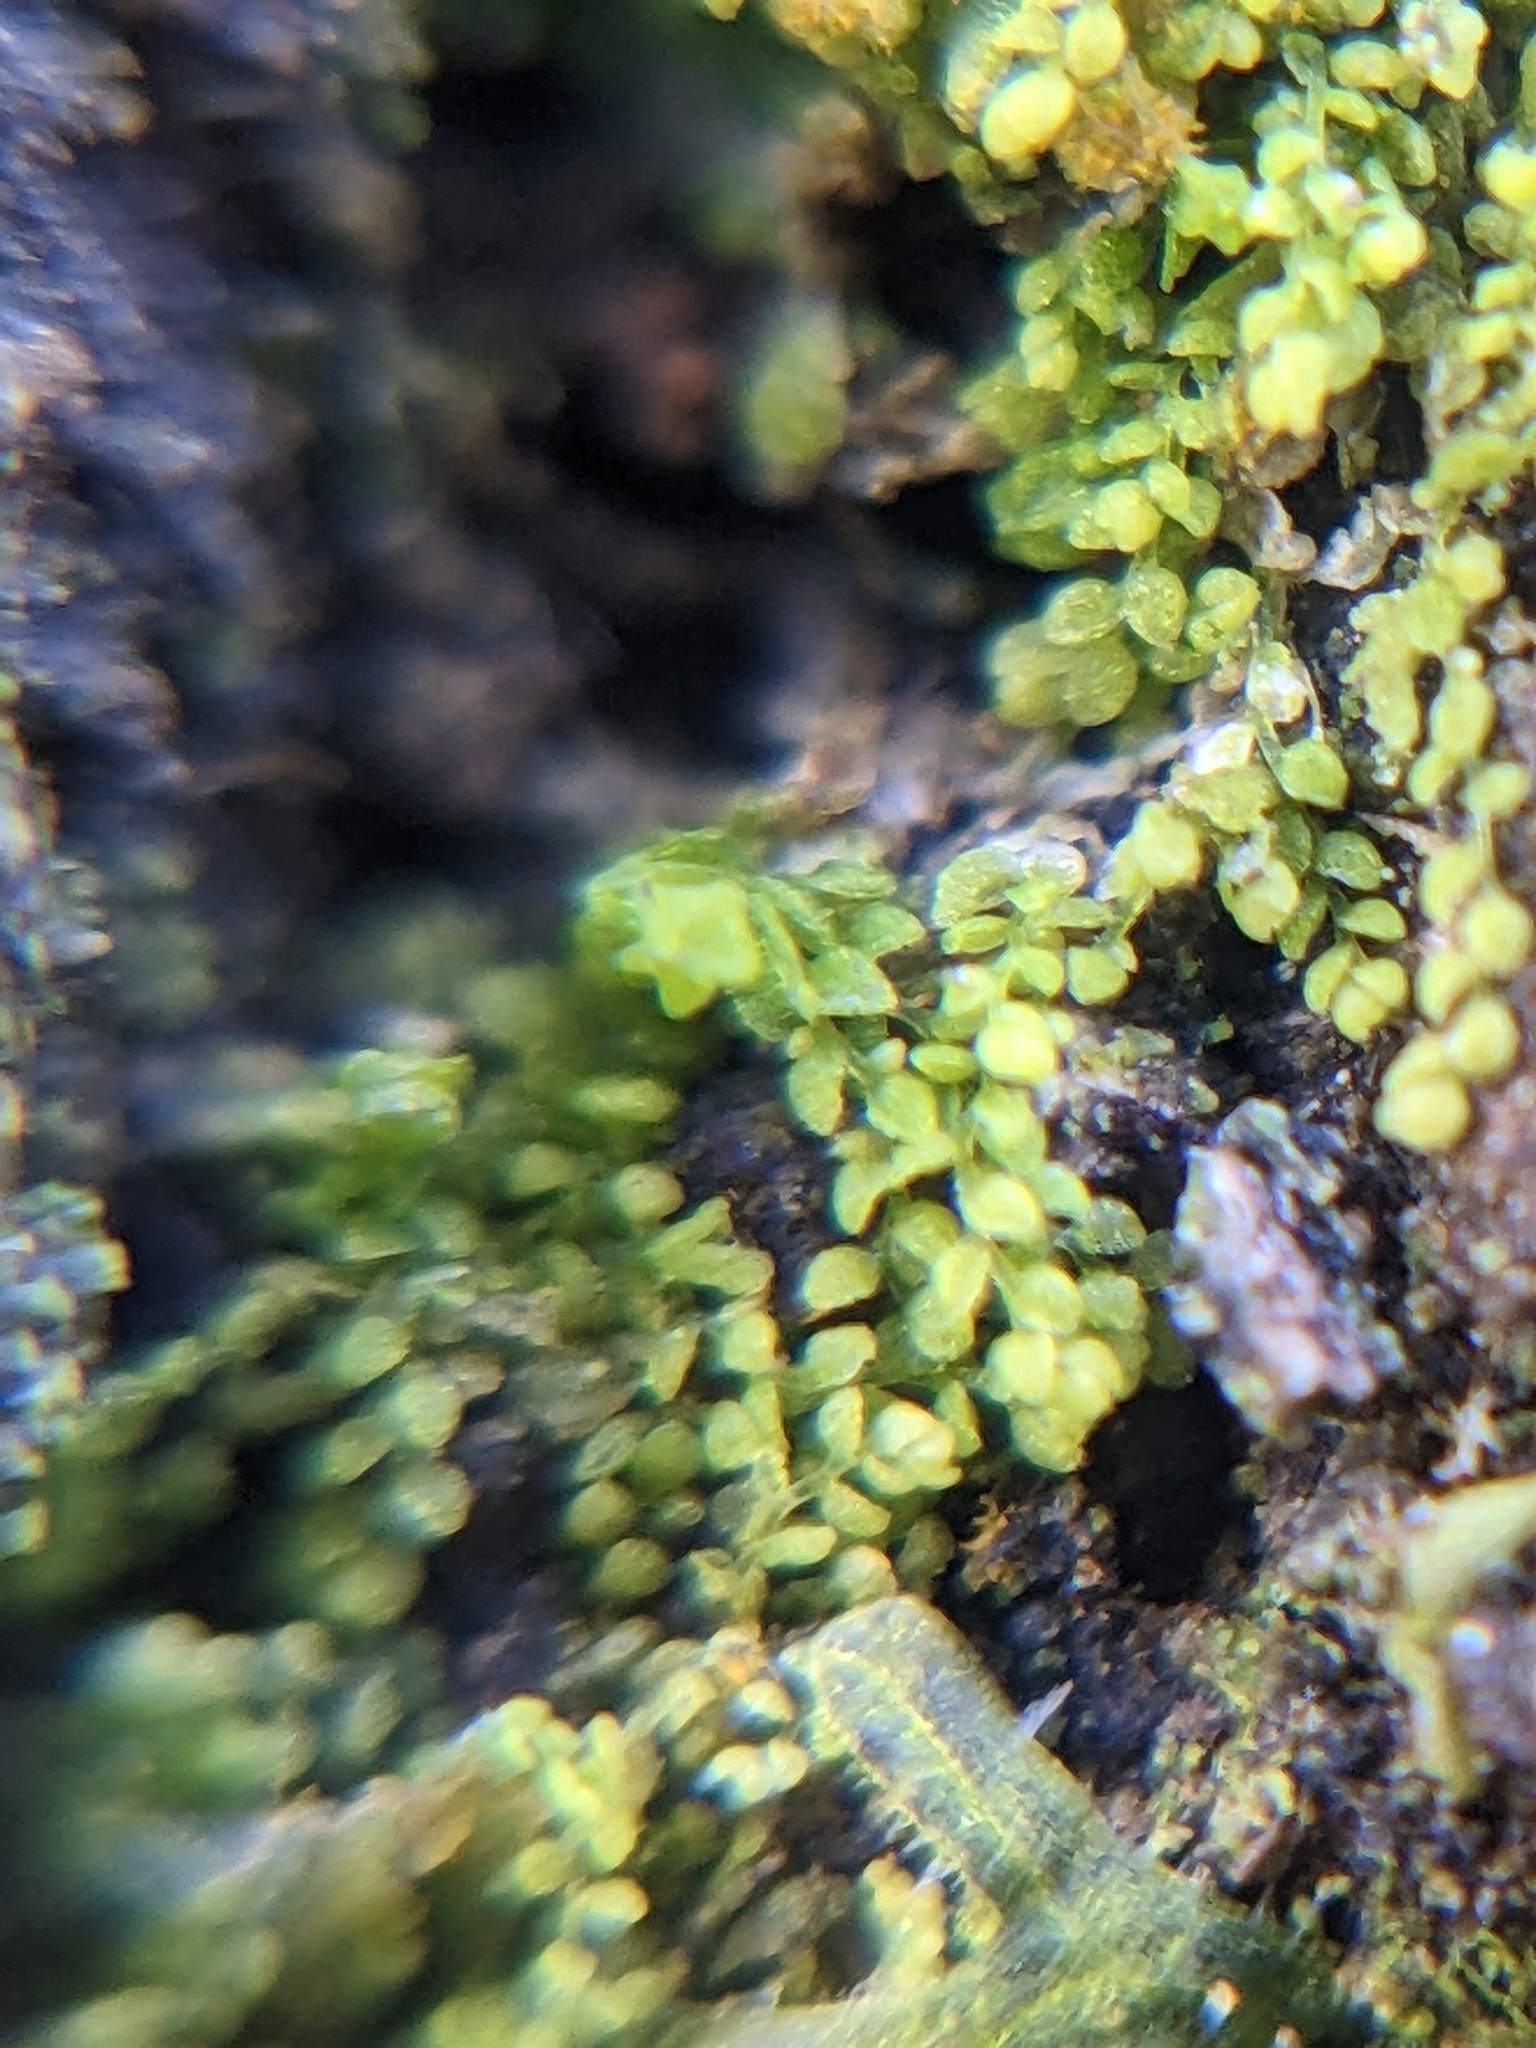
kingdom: Plantae
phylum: Marchantiophyta
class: Jungermanniopsida
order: Porellales
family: Lejeuneaceae
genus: Myriocoleopsis
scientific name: Myriocoleopsis minutissima
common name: Minute pouncewort
